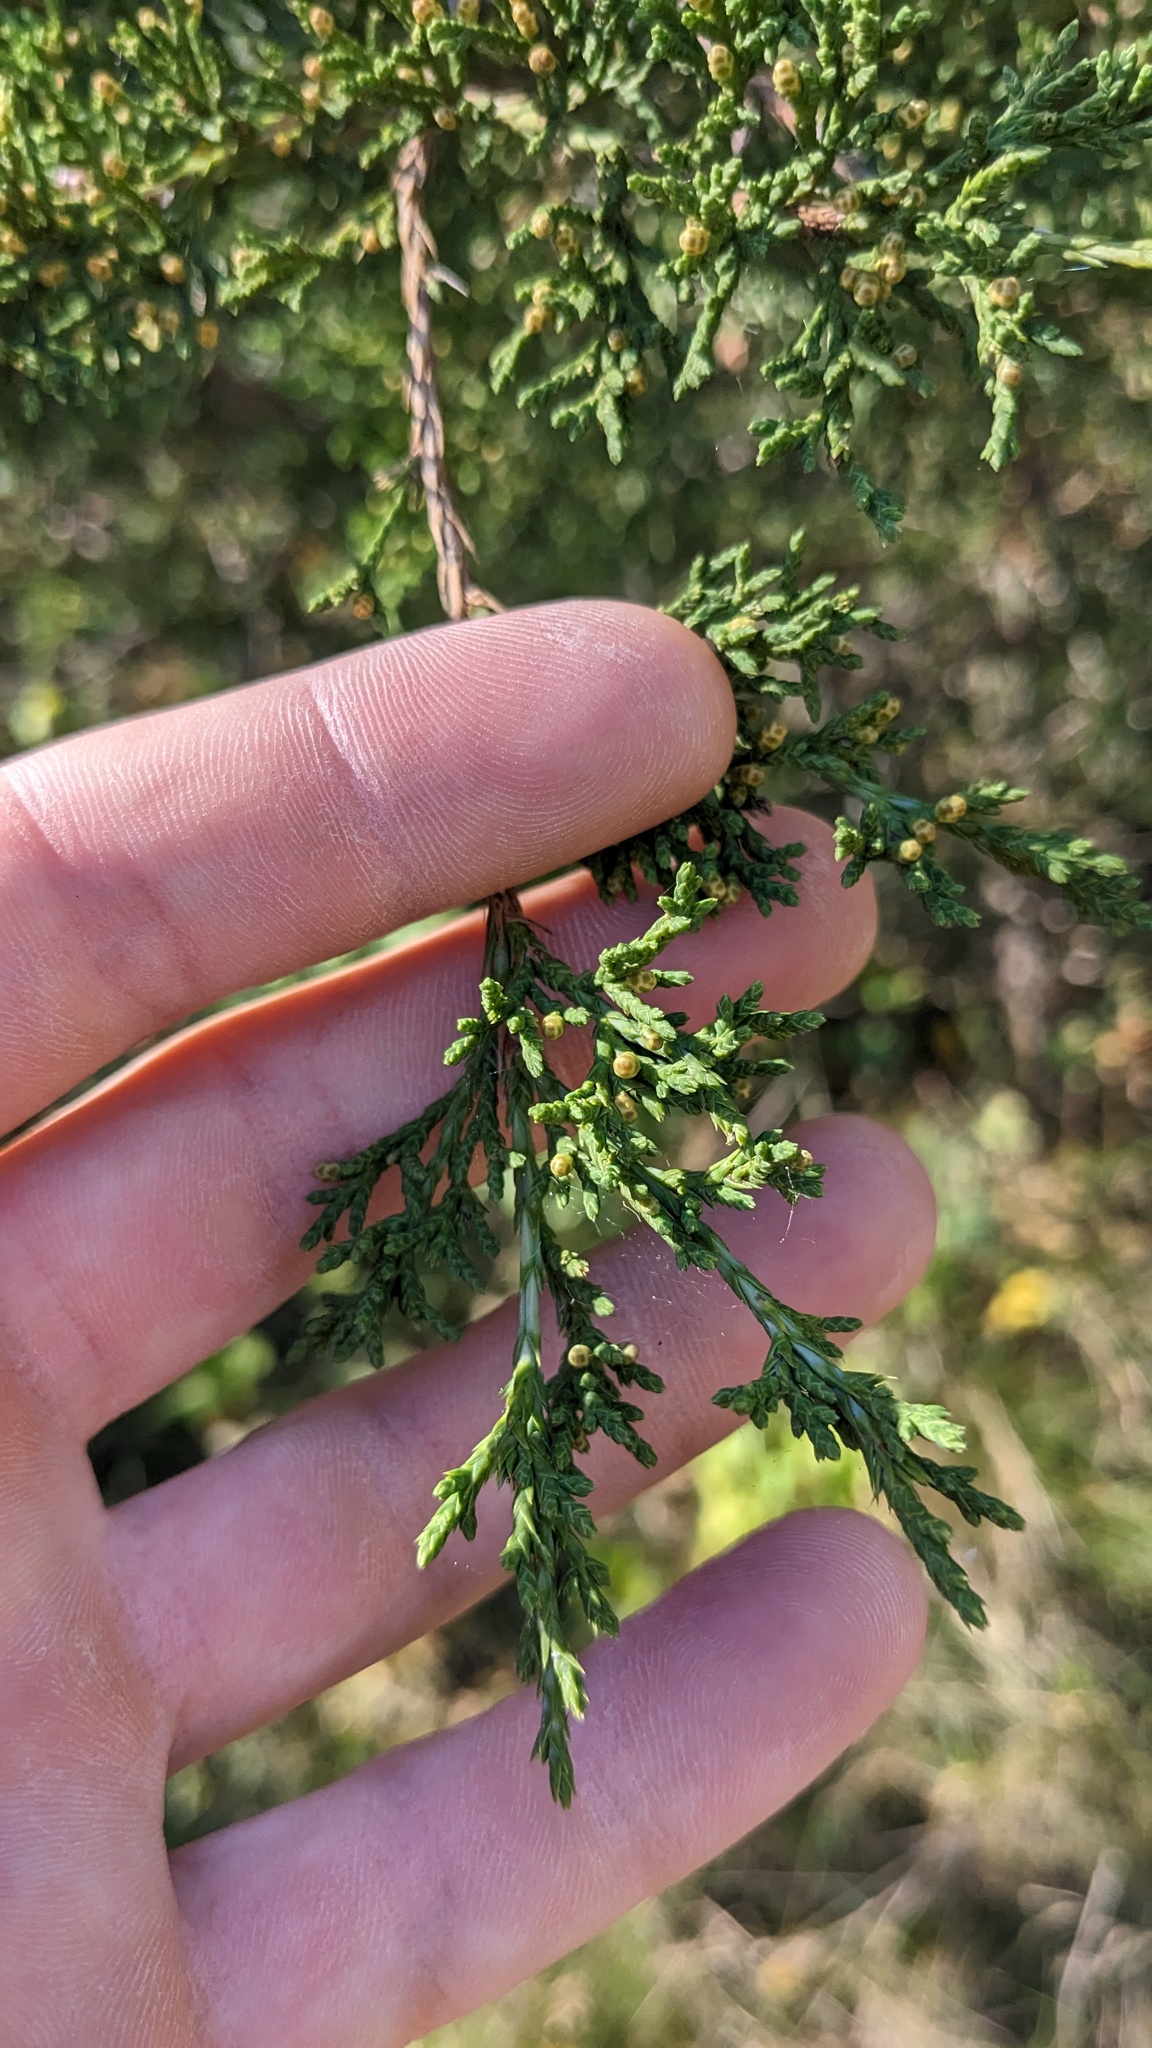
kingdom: Plantae
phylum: Tracheophyta
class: Pinopsida
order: Pinales
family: Cupressaceae
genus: Juniperus
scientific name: Juniperus virginiana
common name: Red juniper
